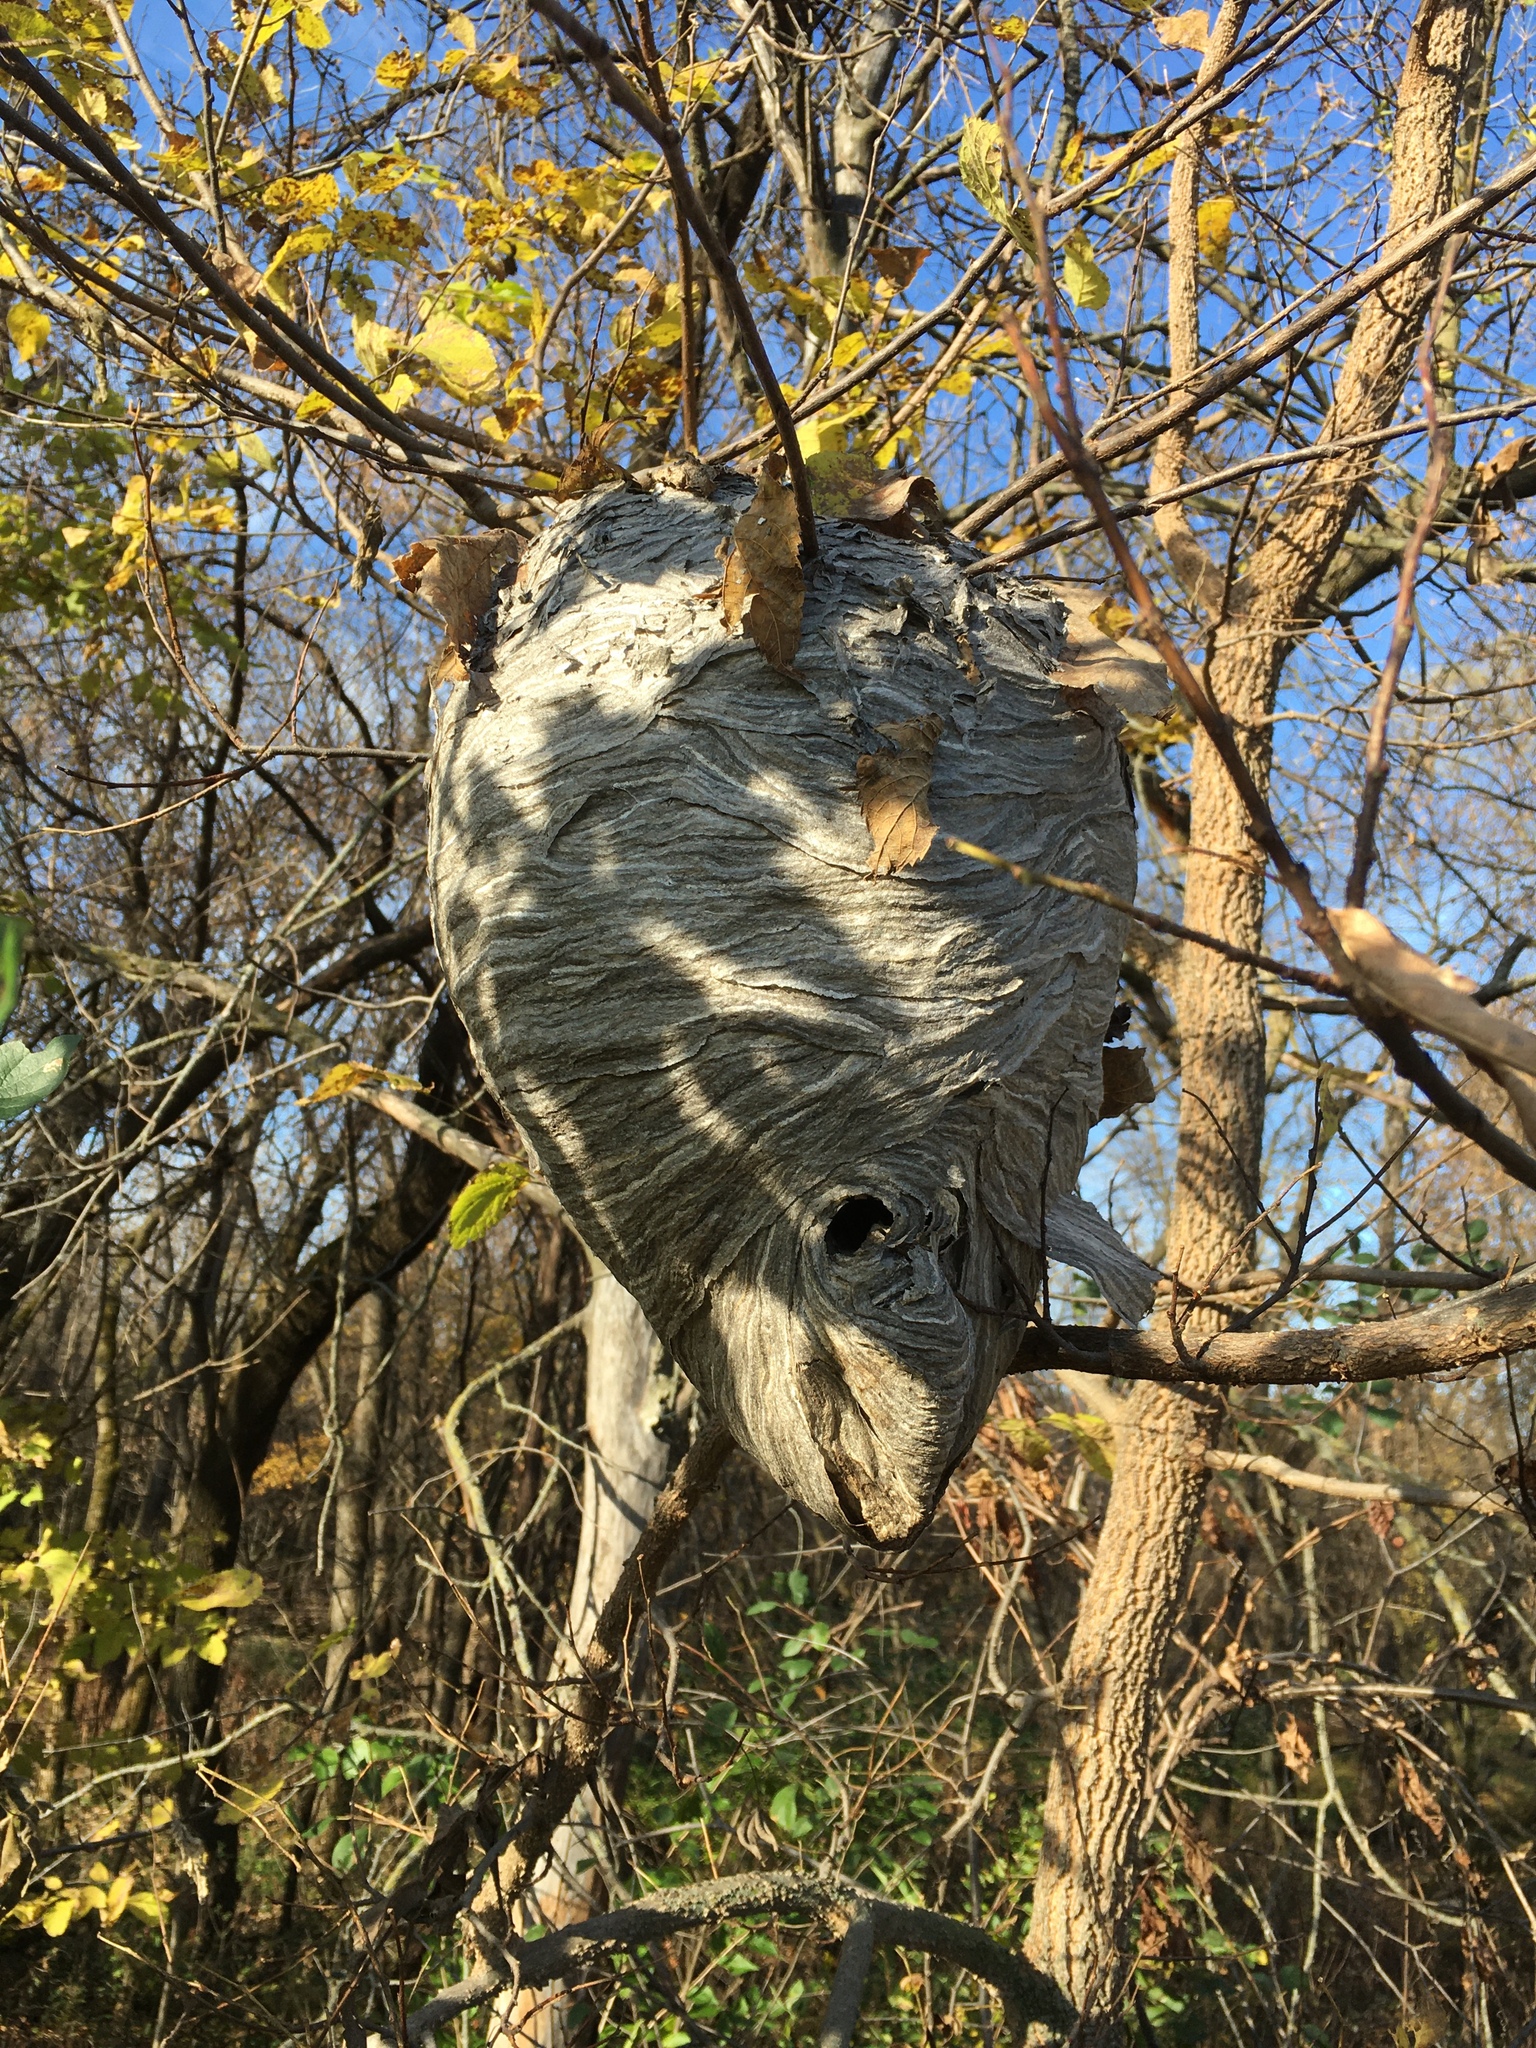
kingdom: Animalia
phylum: Arthropoda
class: Insecta
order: Hymenoptera
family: Vespidae
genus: Dolichovespula
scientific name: Dolichovespula arenaria
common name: Aerial yellowjacket
